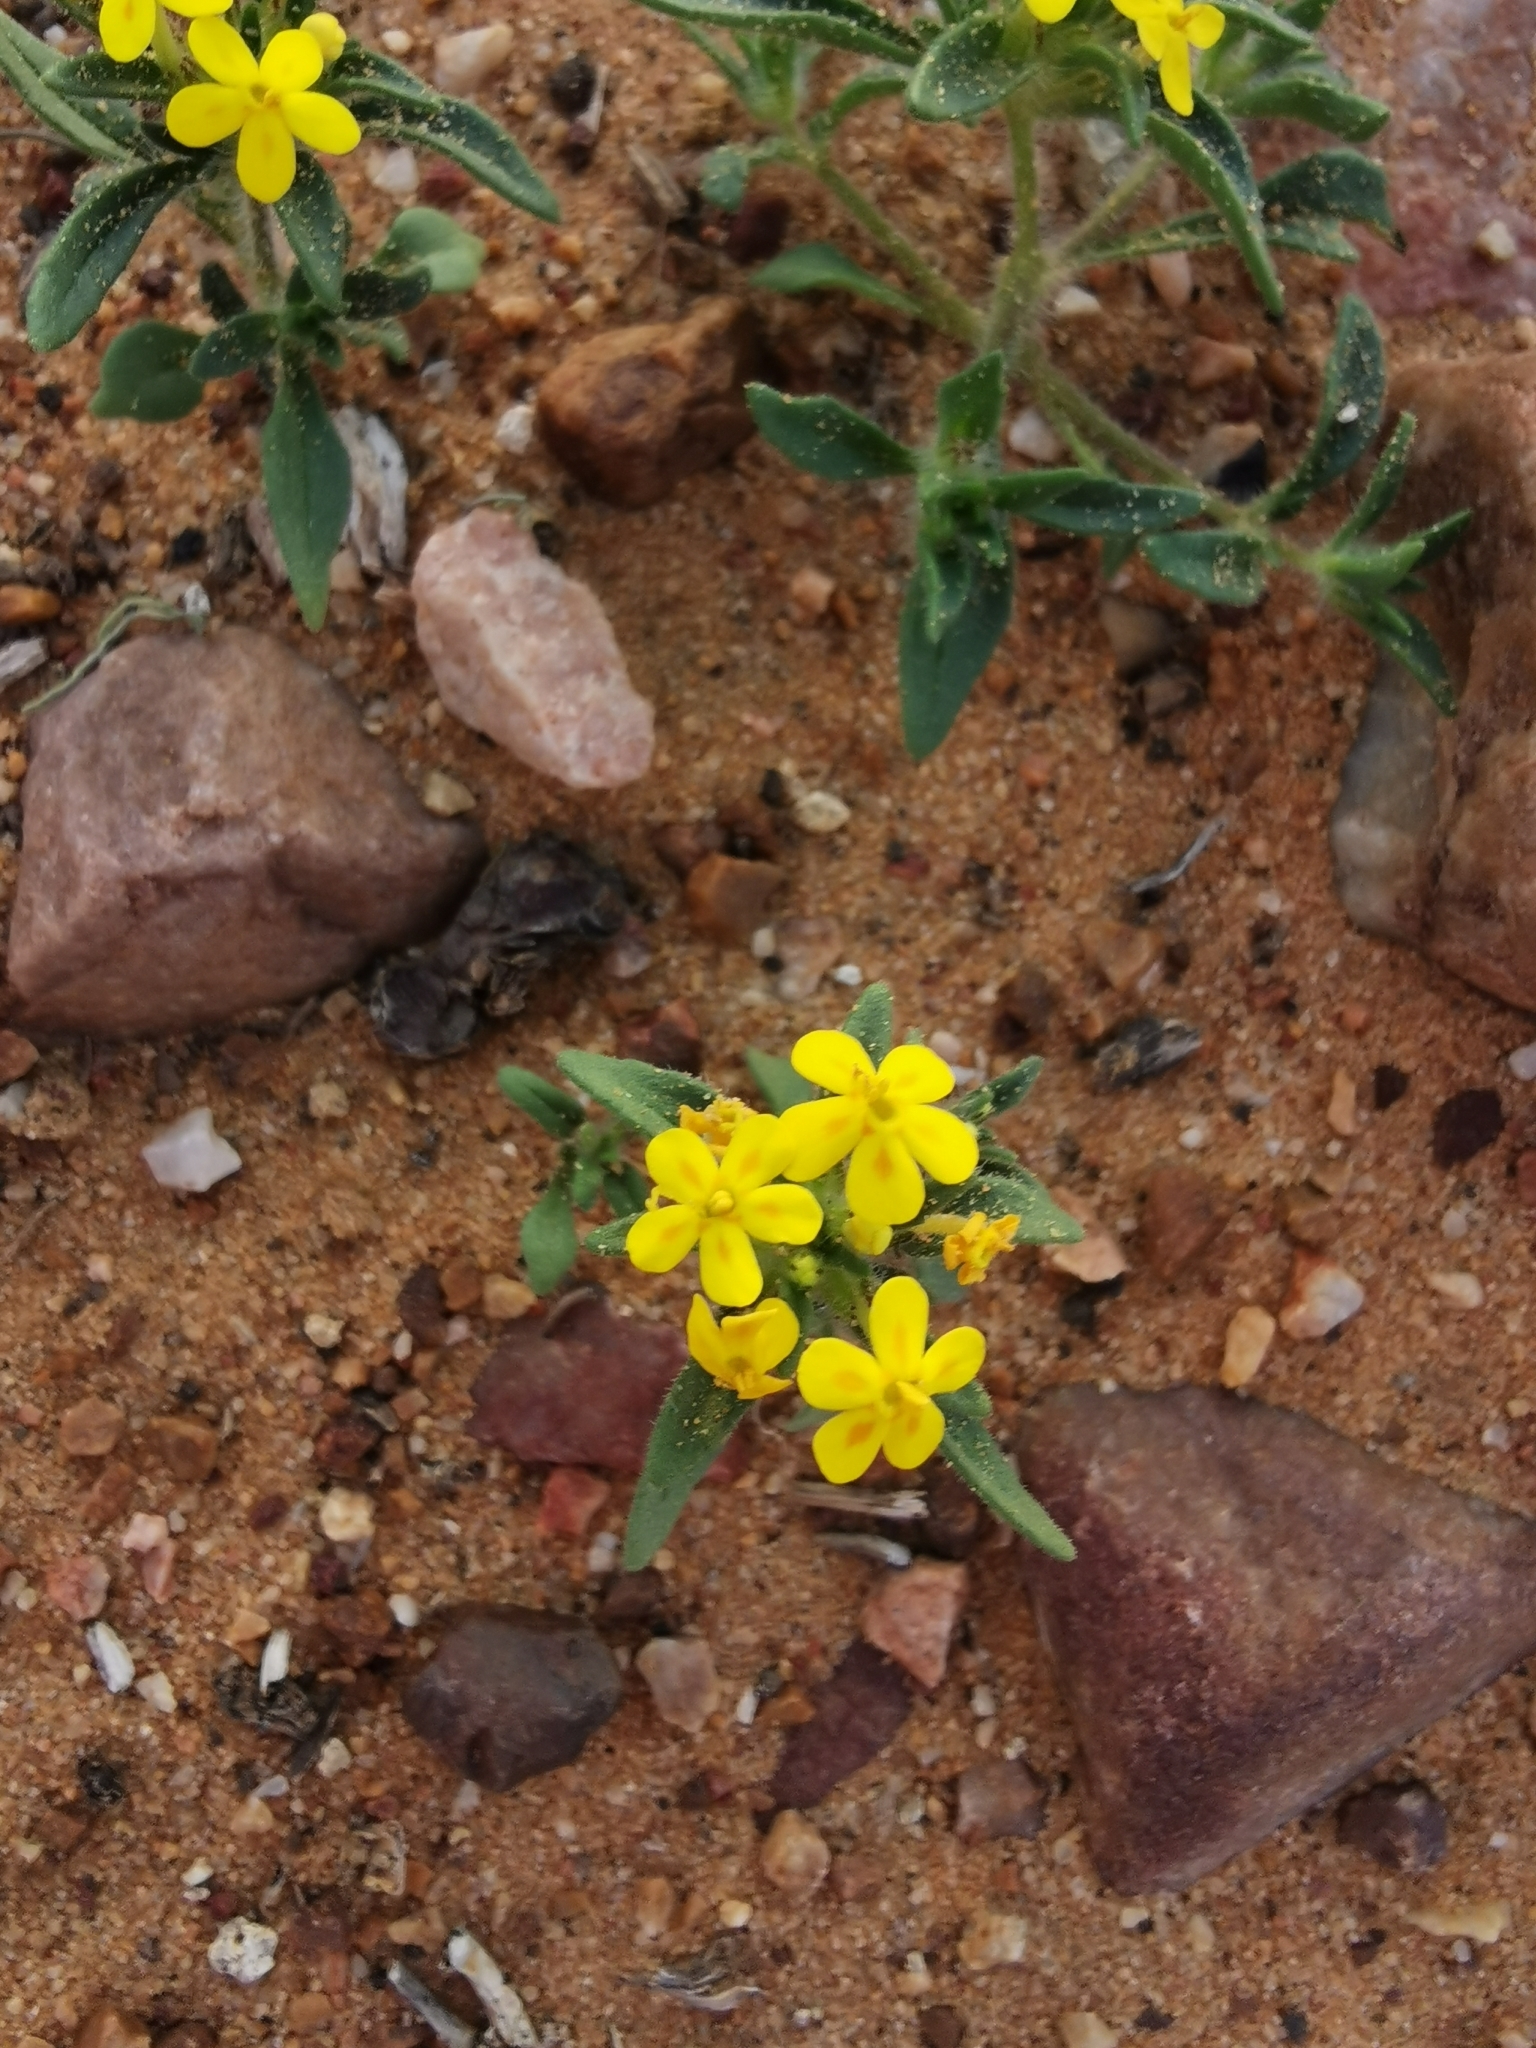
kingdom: Plantae
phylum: Tracheophyta
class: Magnoliopsida
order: Lamiales
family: Scrophulariaceae
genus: Zaluzianskya
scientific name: Zaluzianskya lanigera
